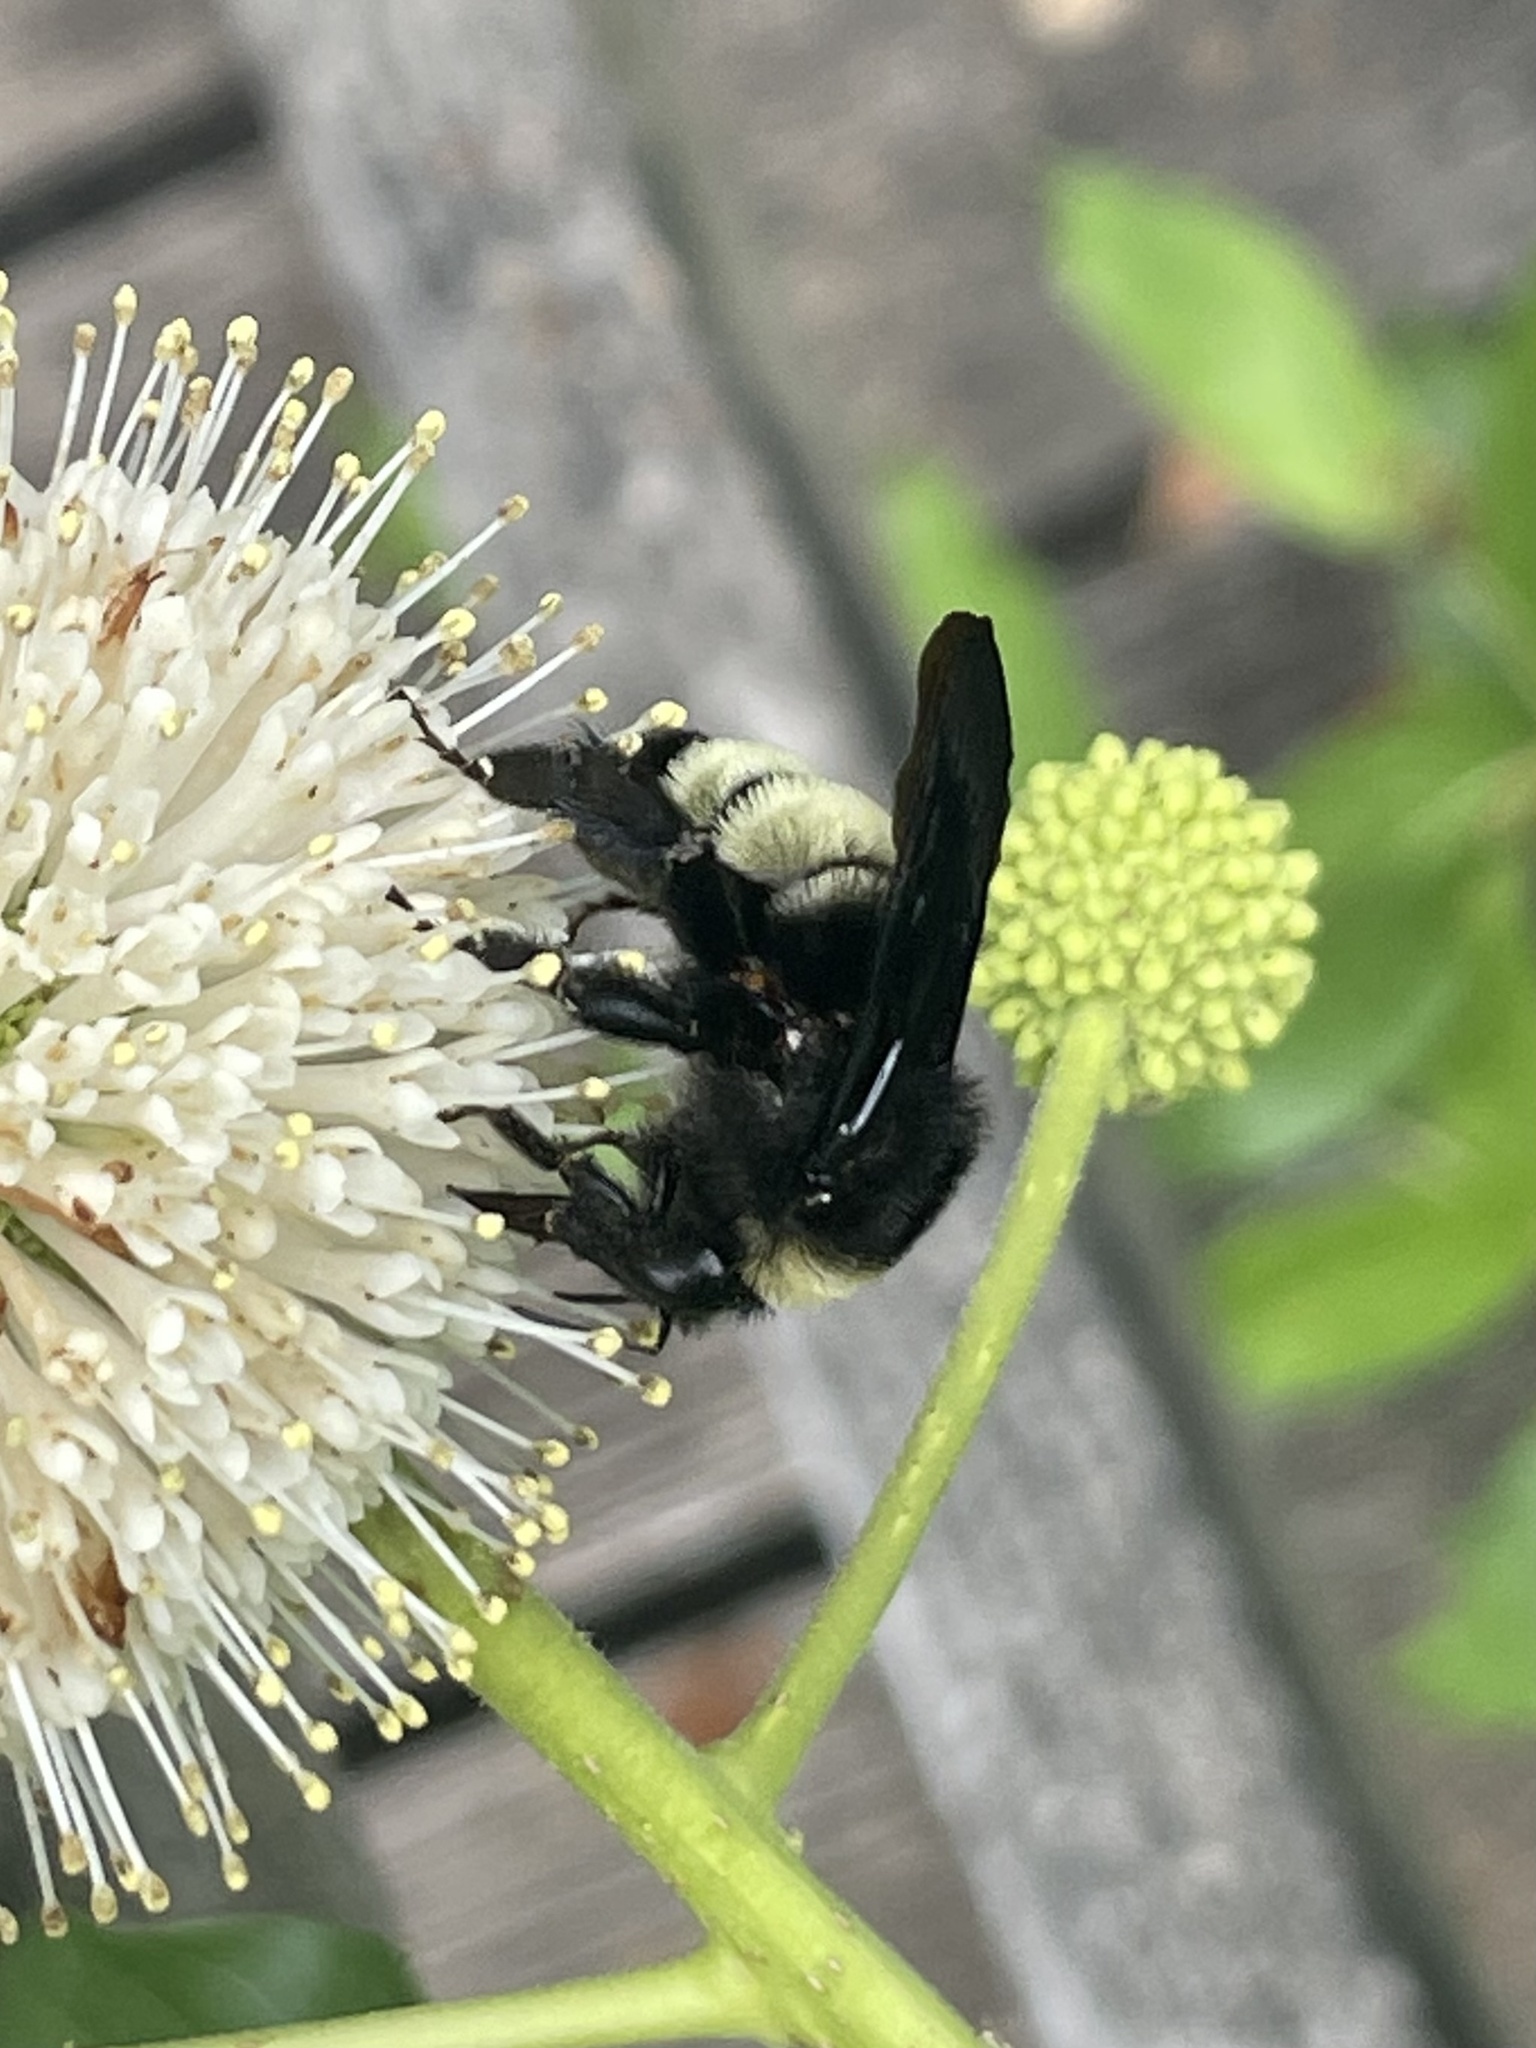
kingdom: Animalia
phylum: Arthropoda
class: Insecta
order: Hymenoptera
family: Apidae
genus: Bombus
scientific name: Bombus pensylvanicus
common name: Bumble bee
